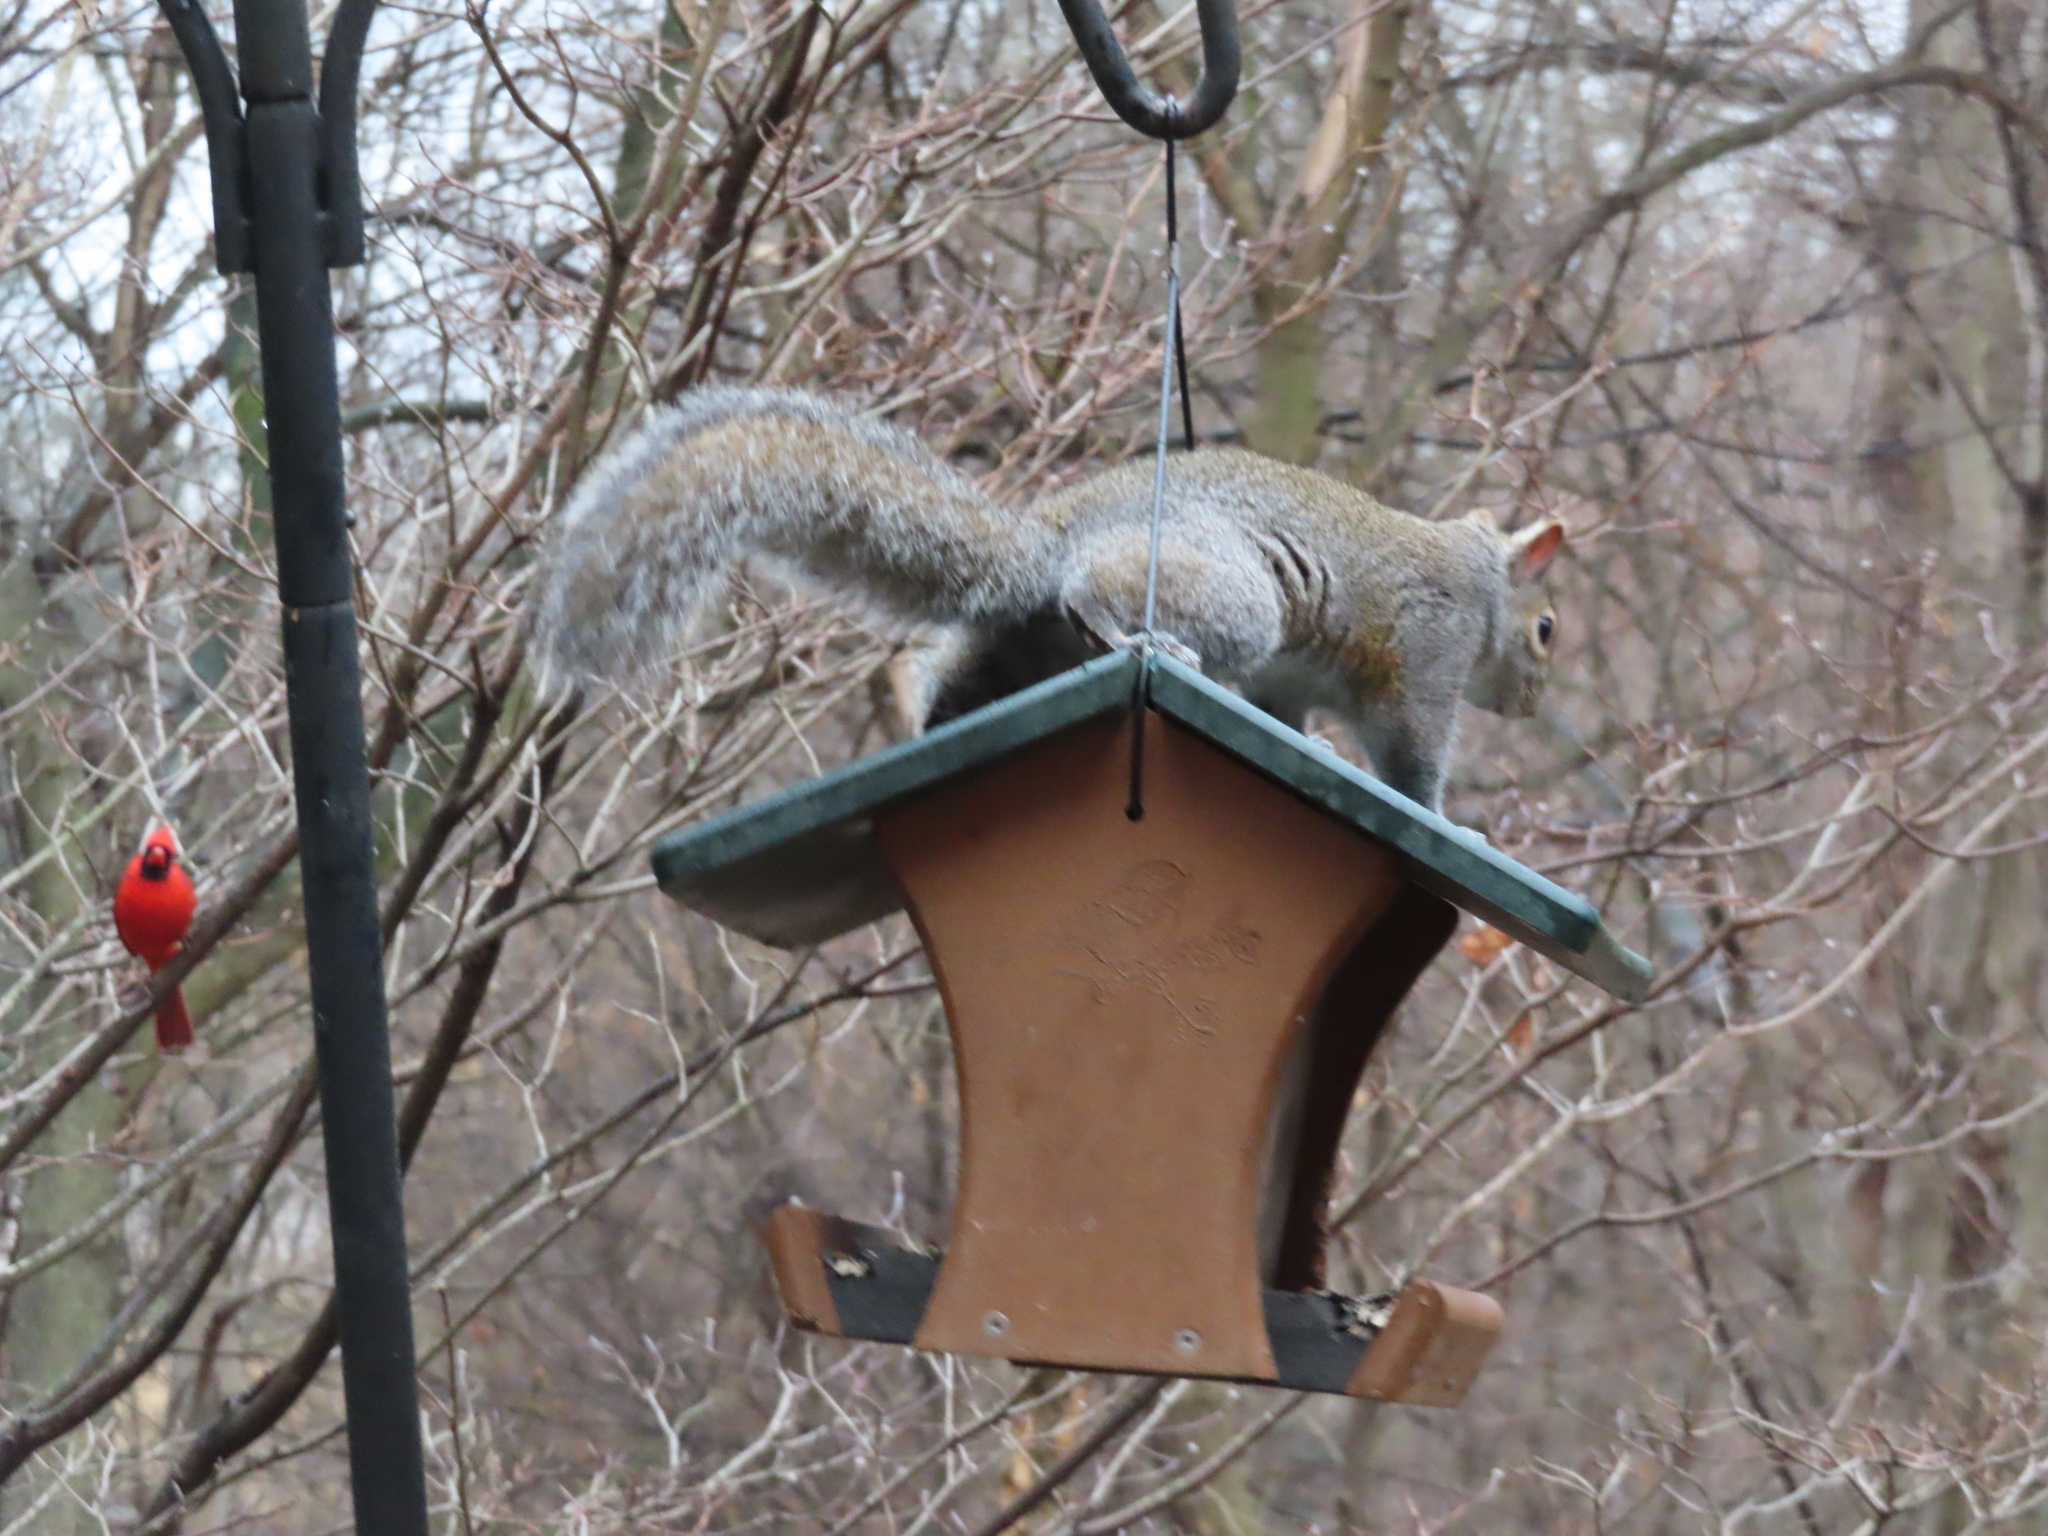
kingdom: Animalia
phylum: Chordata
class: Mammalia
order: Rodentia
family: Sciuridae
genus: Sciurus
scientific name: Sciurus carolinensis
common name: Eastern gray squirrel
